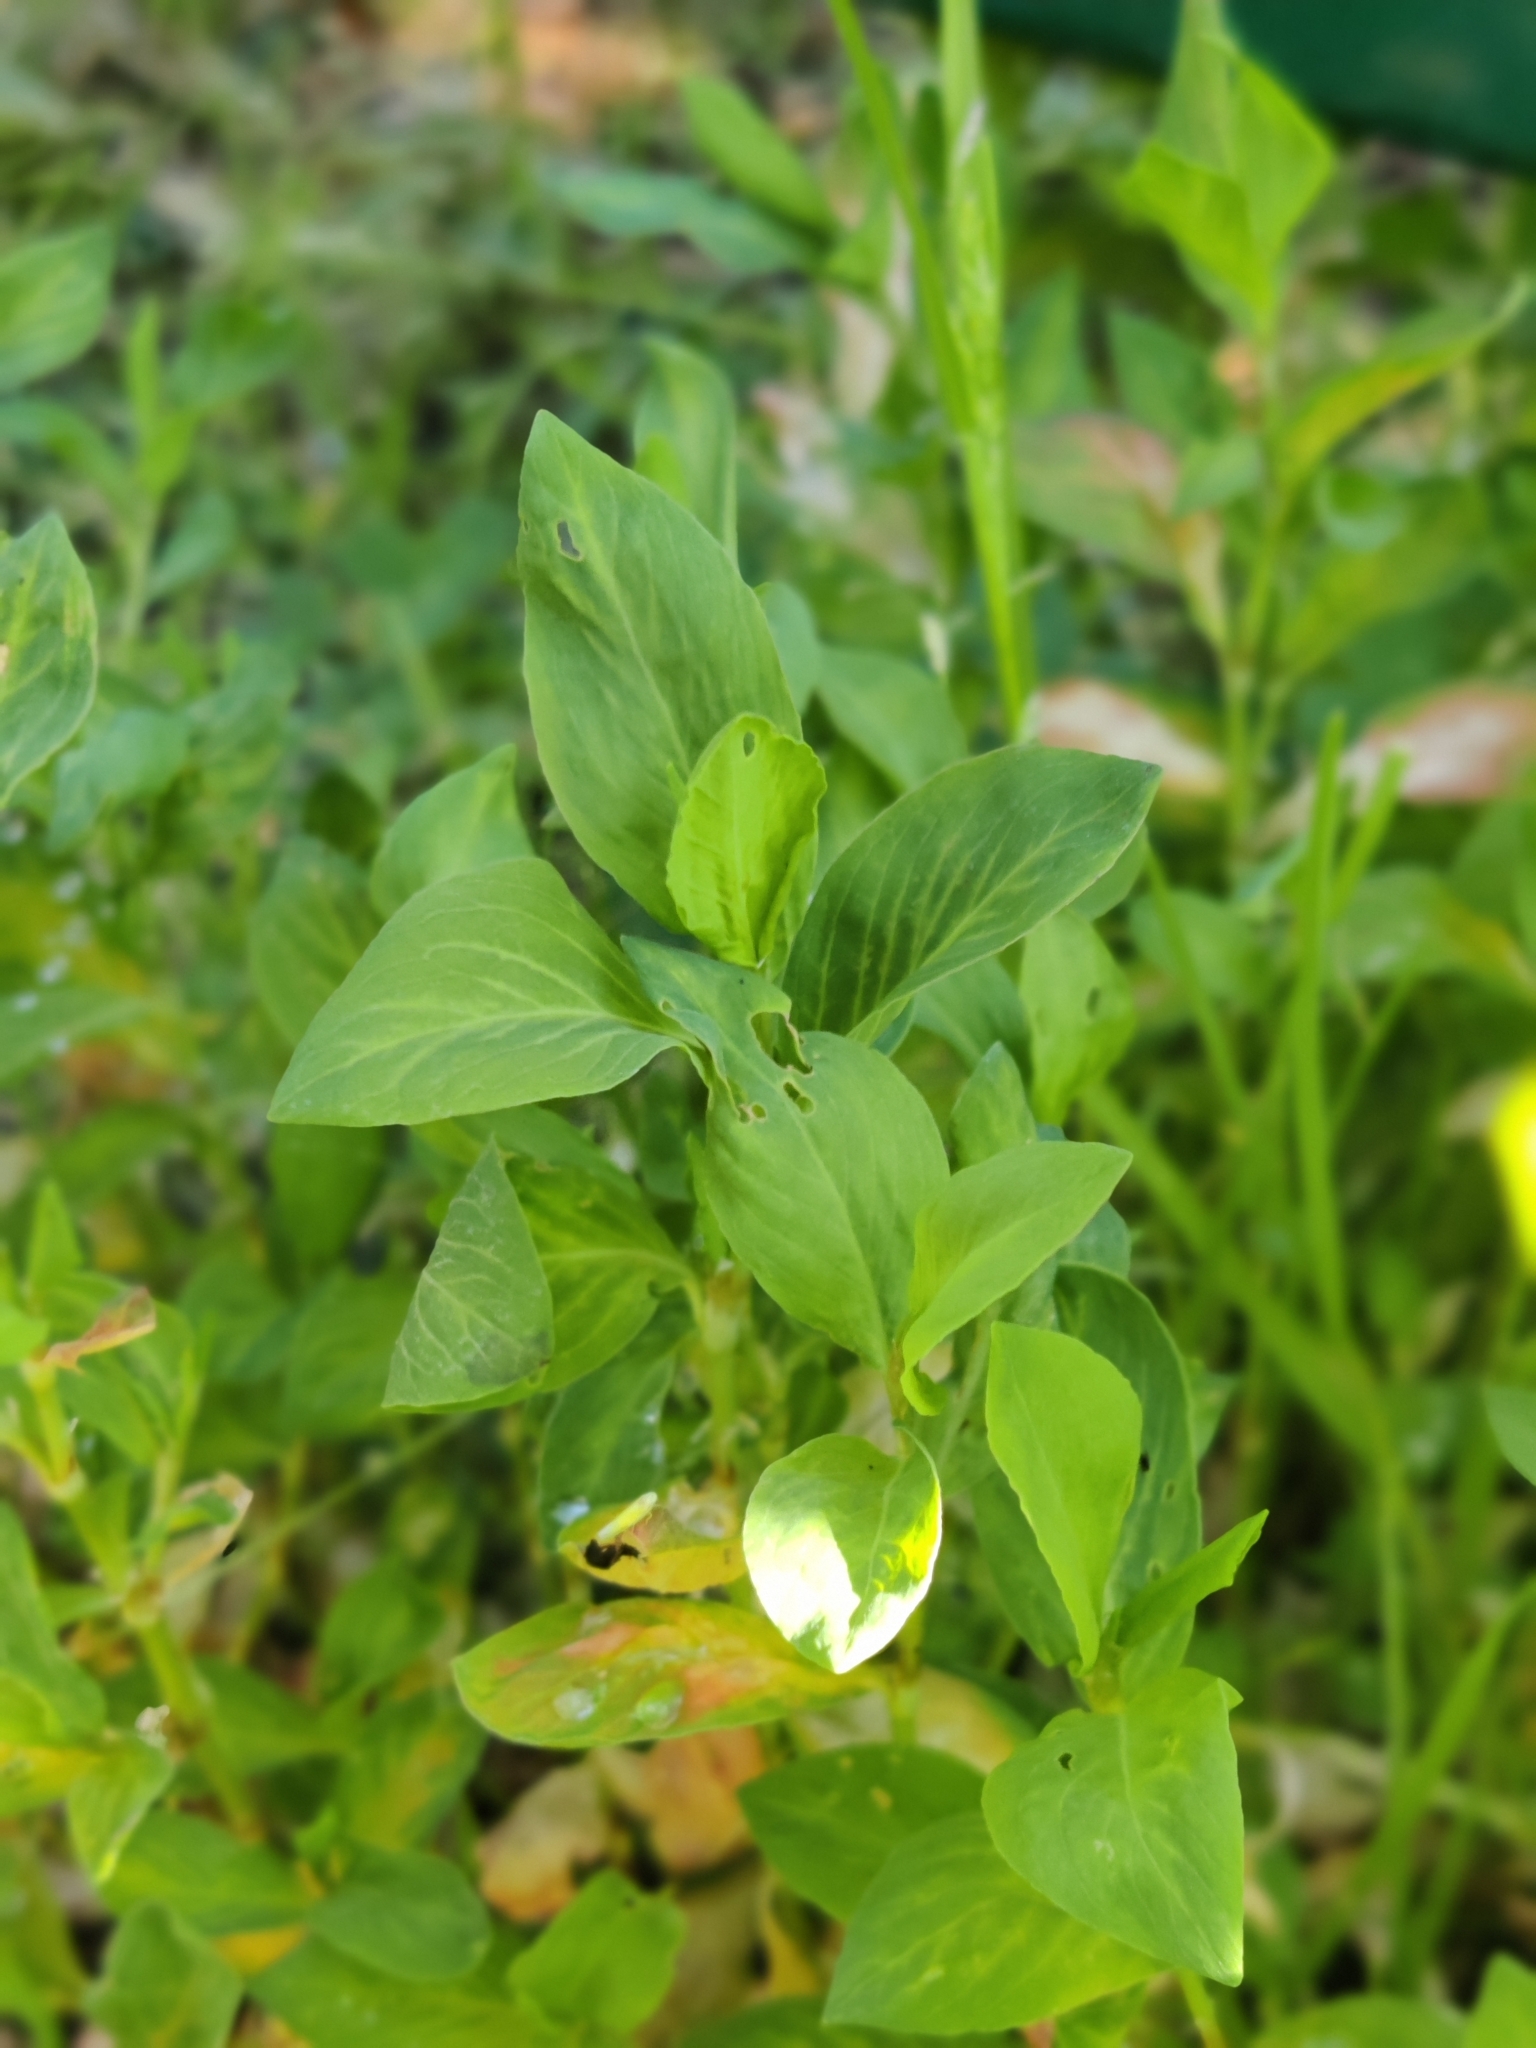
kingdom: Plantae
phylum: Tracheophyta
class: Magnoliopsida
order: Caryophyllales
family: Polygonaceae
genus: Polygonum
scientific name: Polygonum
